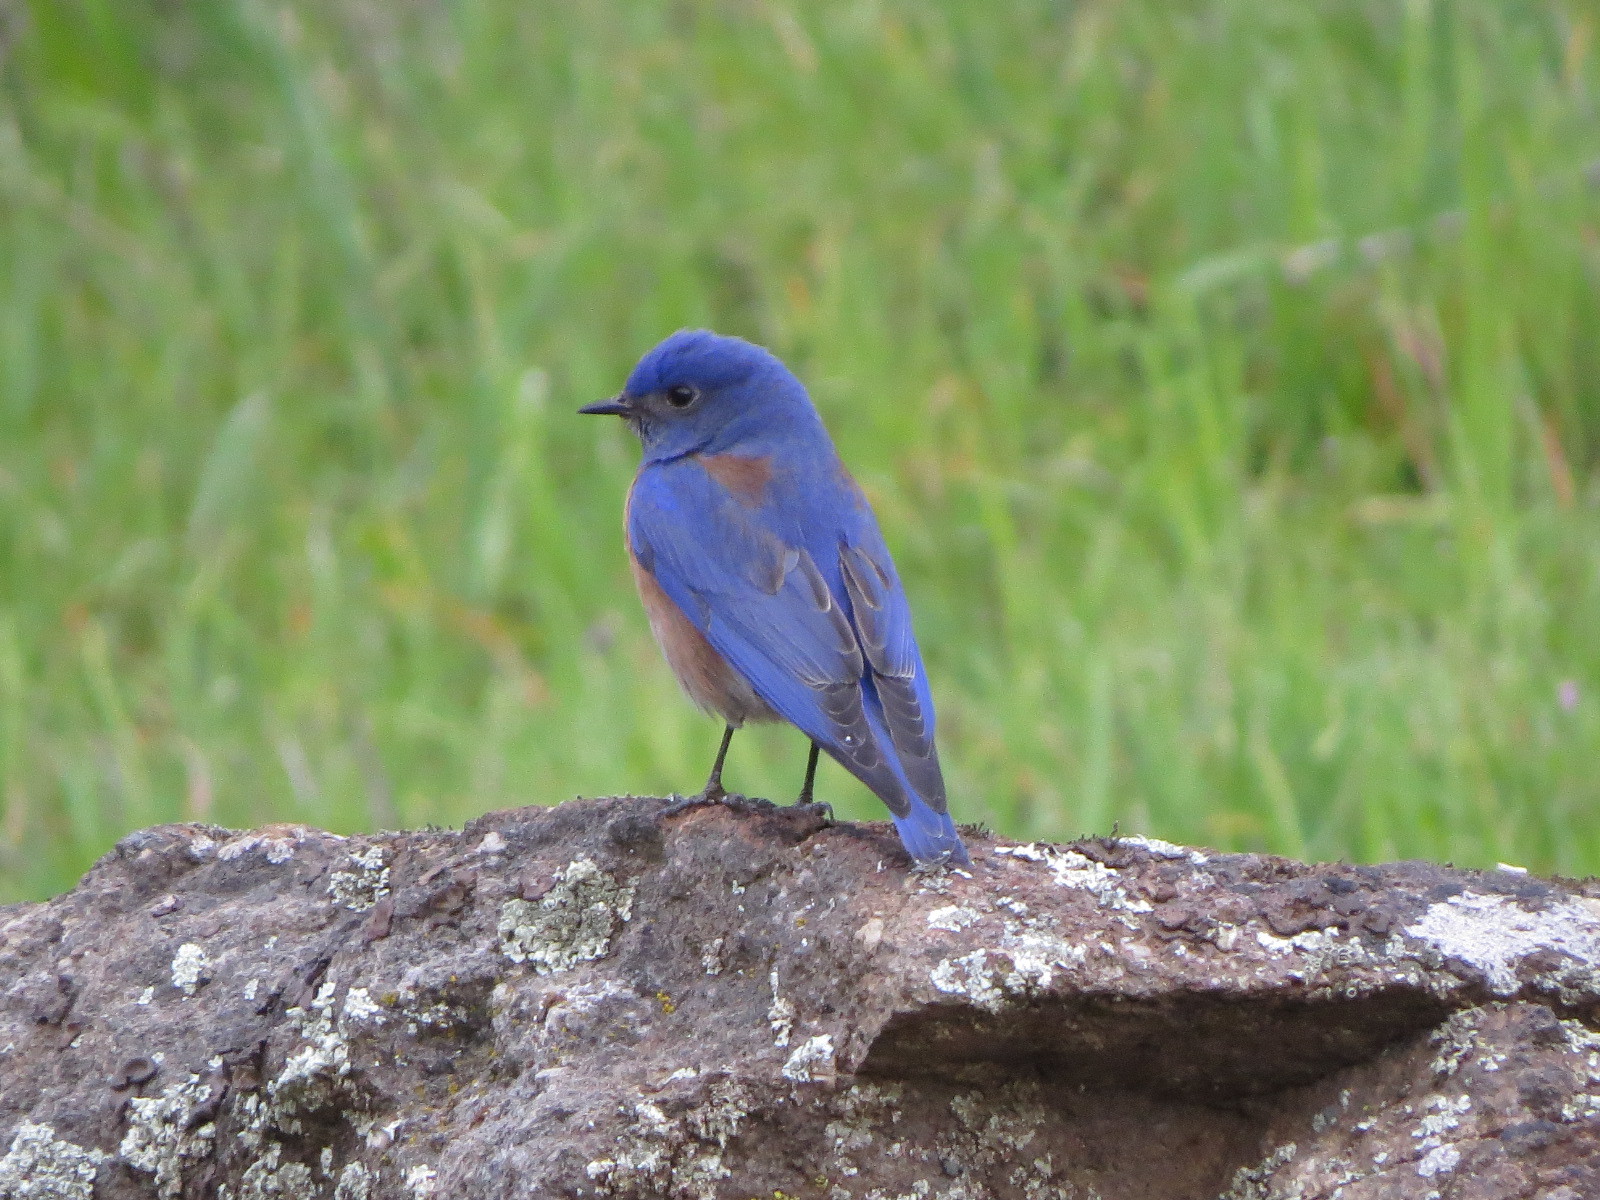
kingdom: Animalia
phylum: Chordata
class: Aves
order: Passeriformes
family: Turdidae
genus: Sialia
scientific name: Sialia mexicana
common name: Western bluebird
